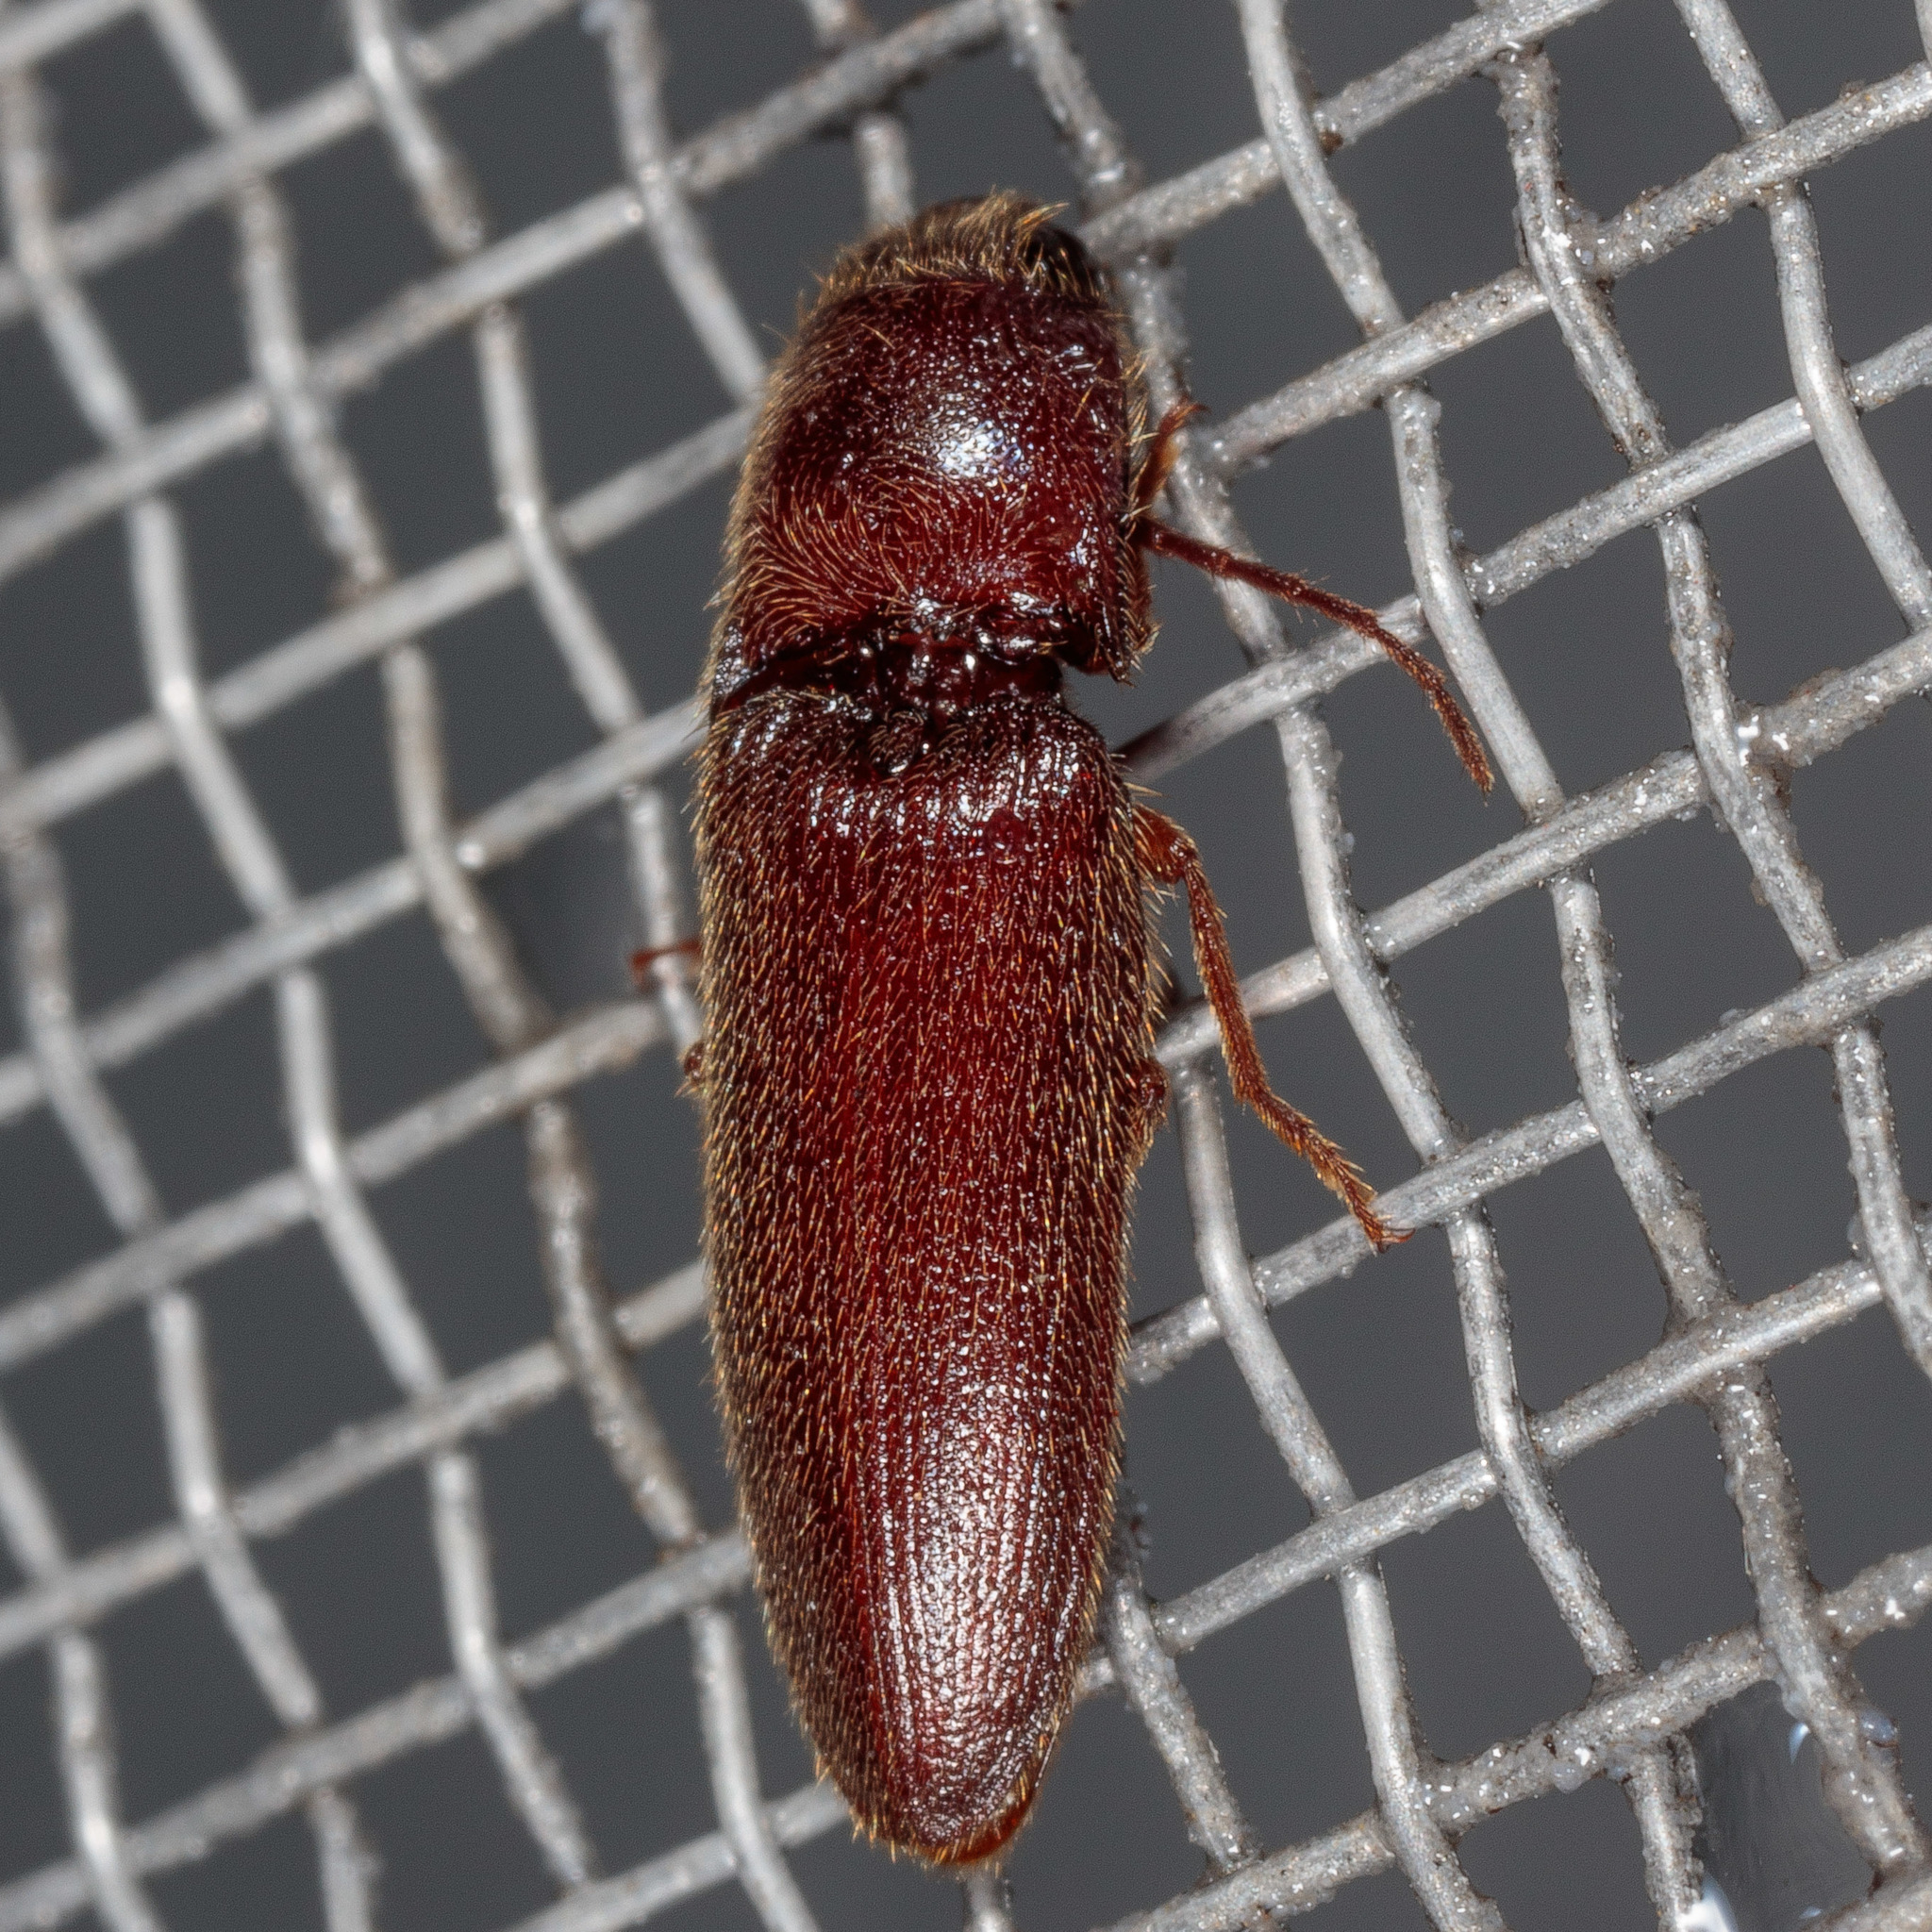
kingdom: Animalia
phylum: Arthropoda
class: Insecta
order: Coleoptera
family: Elateridae
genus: Dipropus
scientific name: Dipropus
